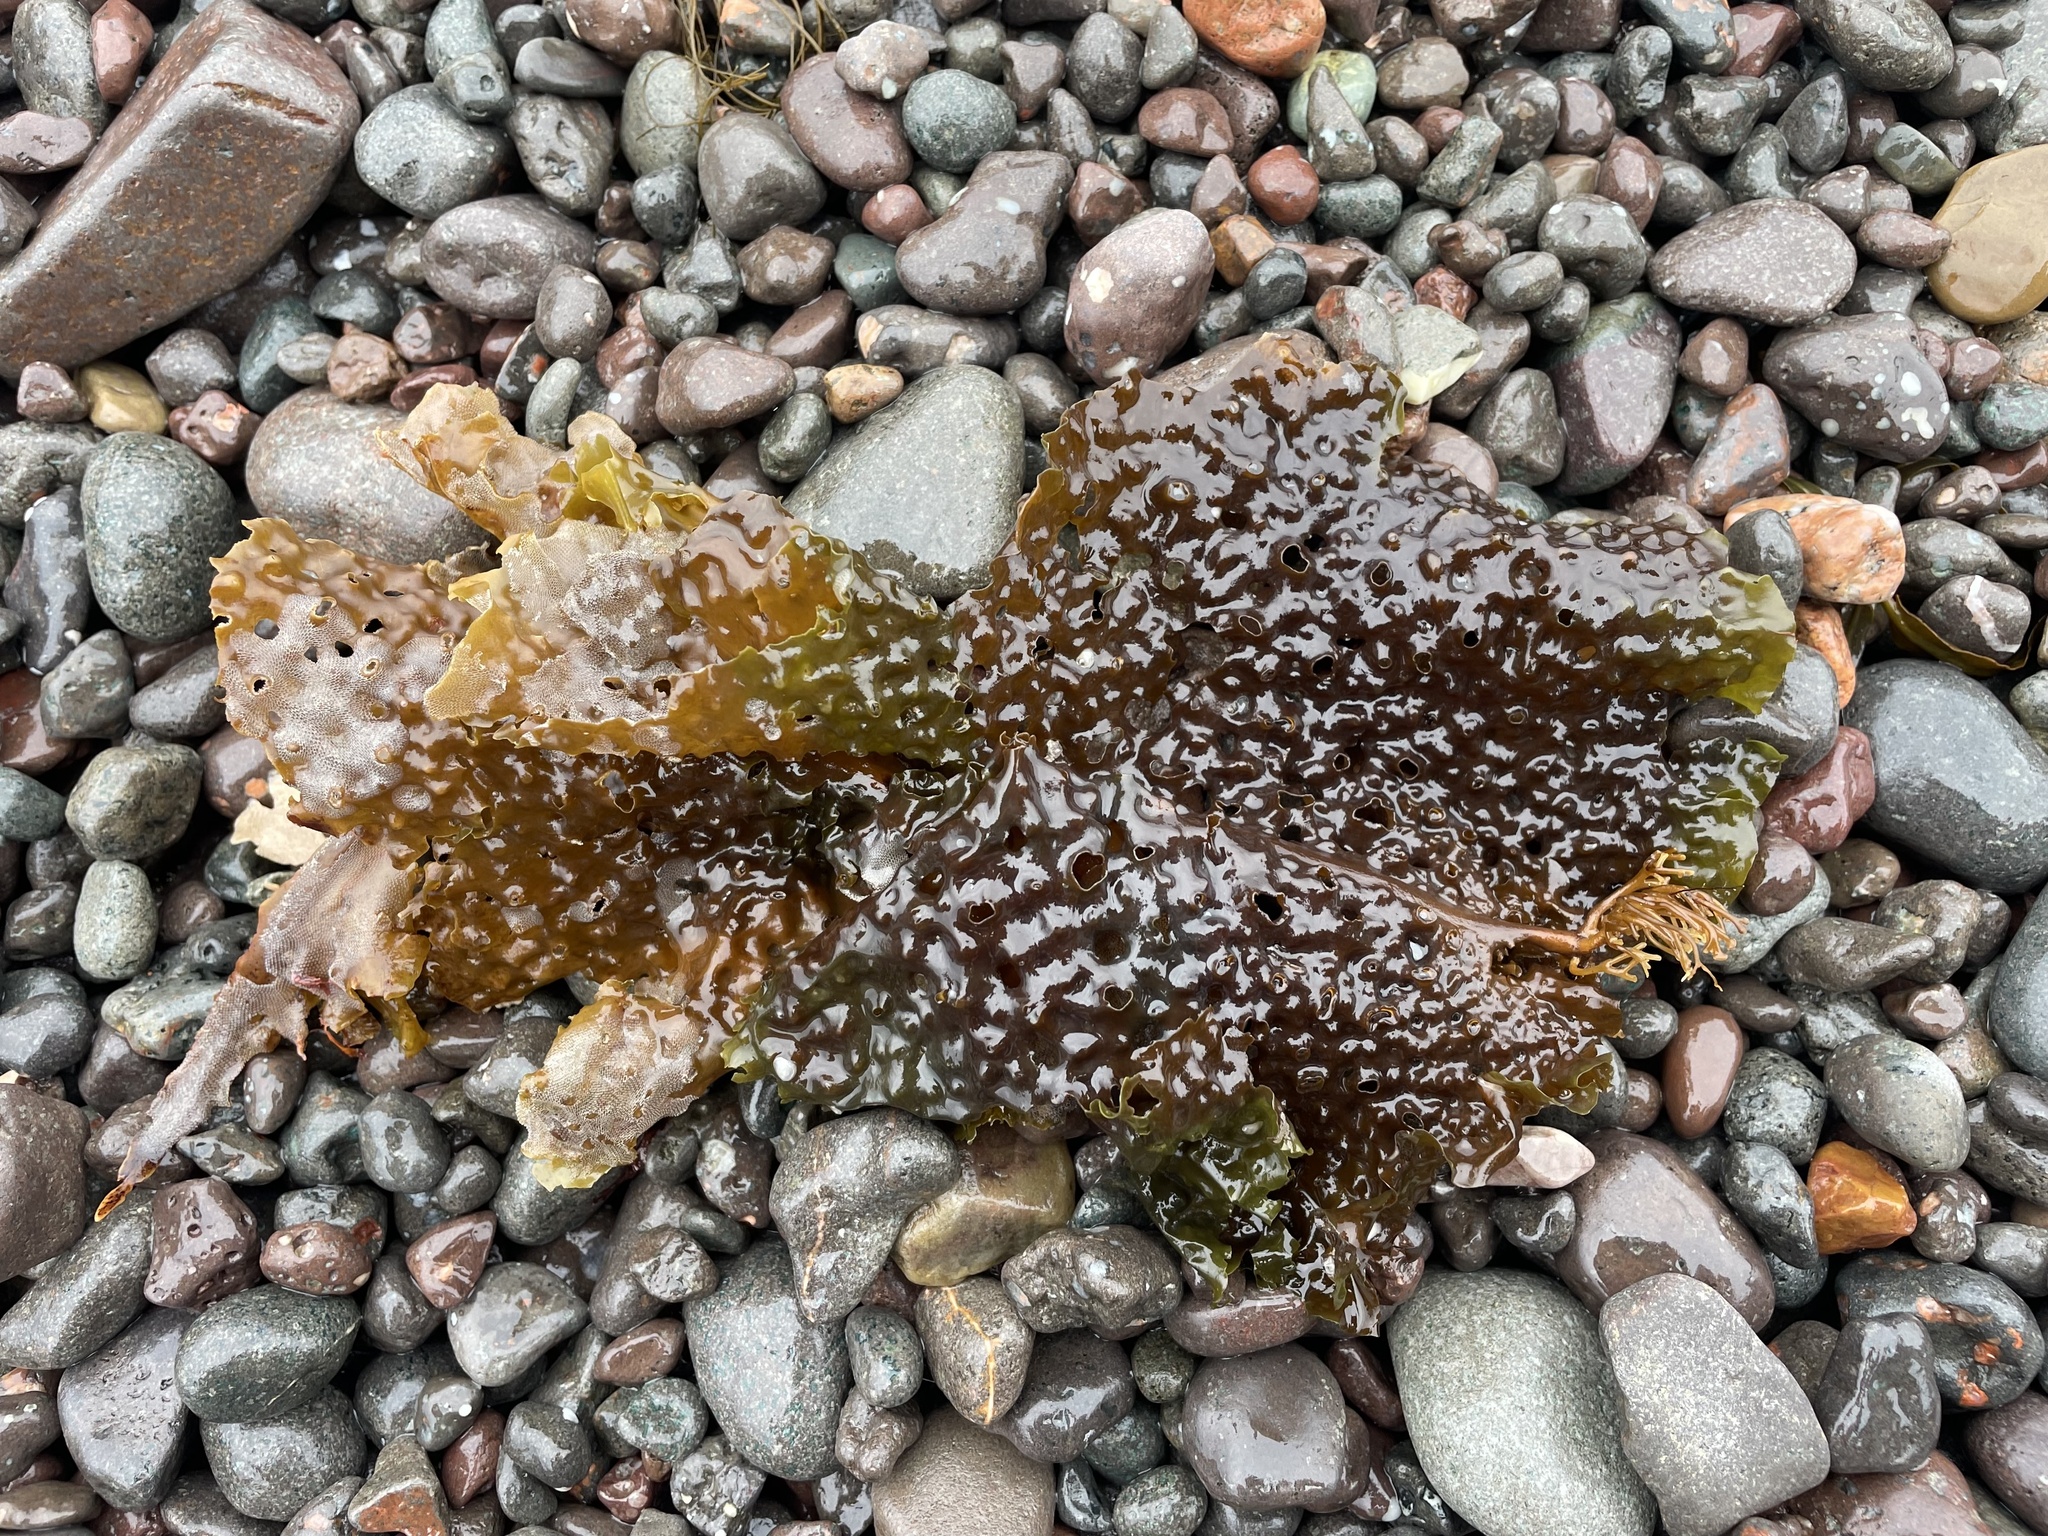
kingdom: Chromista
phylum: Ochrophyta
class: Phaeophyceae
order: Laminariales
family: Costariaceae
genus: Agarum
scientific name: Agarum clathratum
